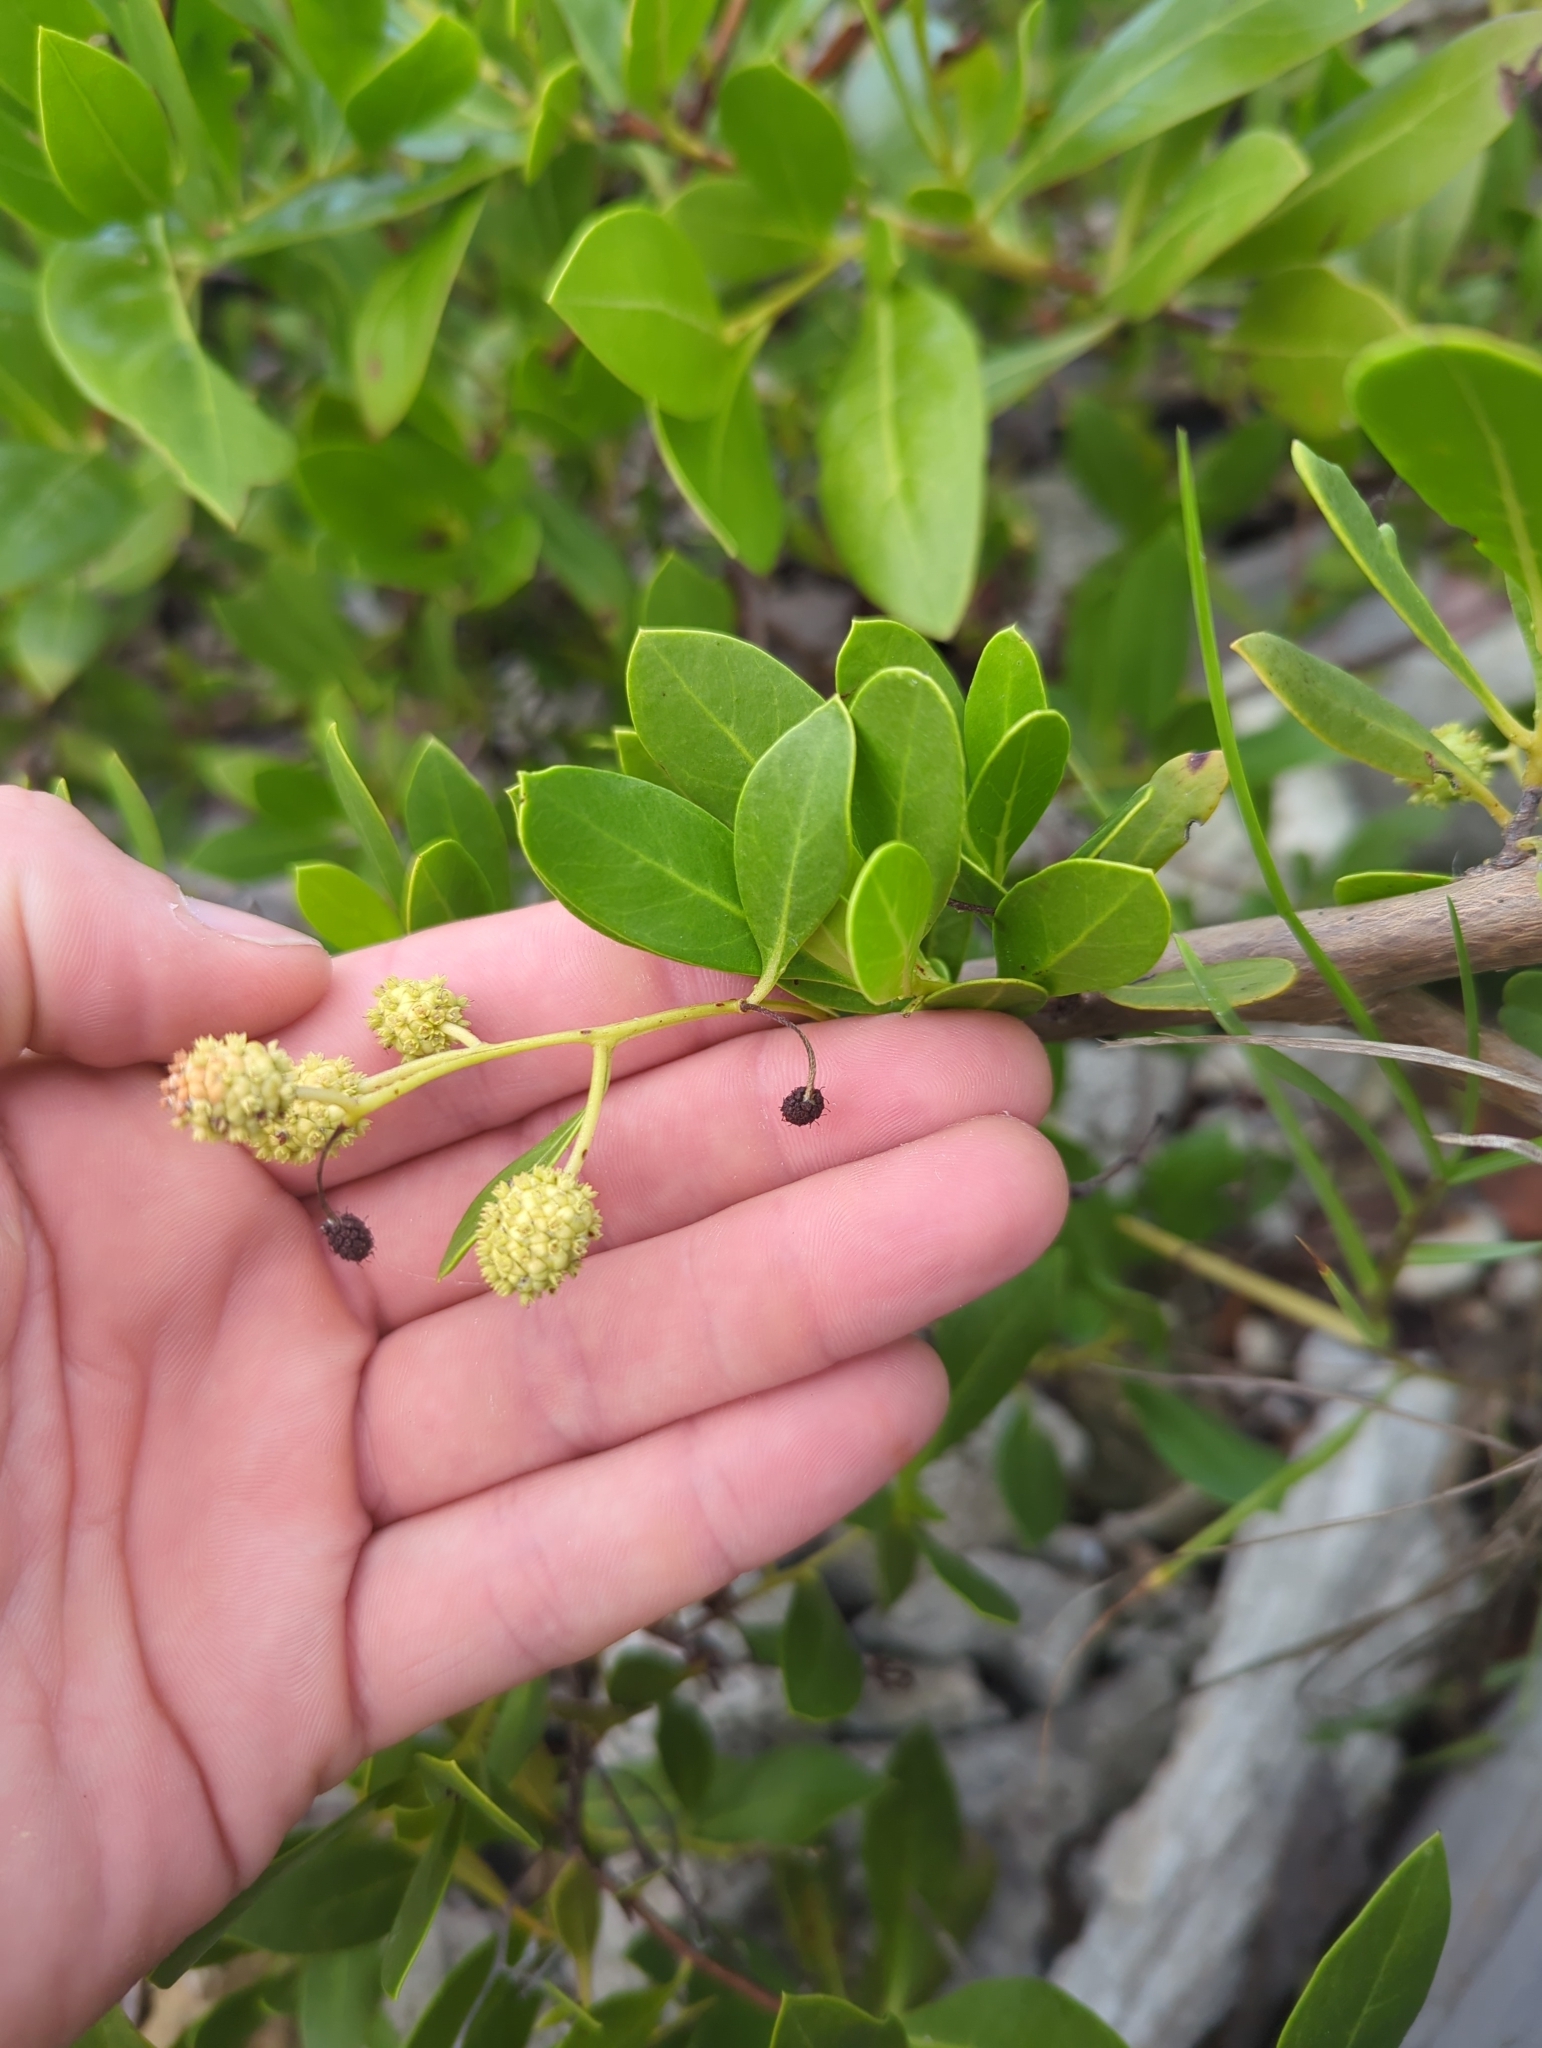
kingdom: Plantae
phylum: Tracheophyta
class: Magnoliopsida
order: Myrtales
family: Combretaceae
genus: Conocarpus
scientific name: Conocarpus erectus
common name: Button mangrove
